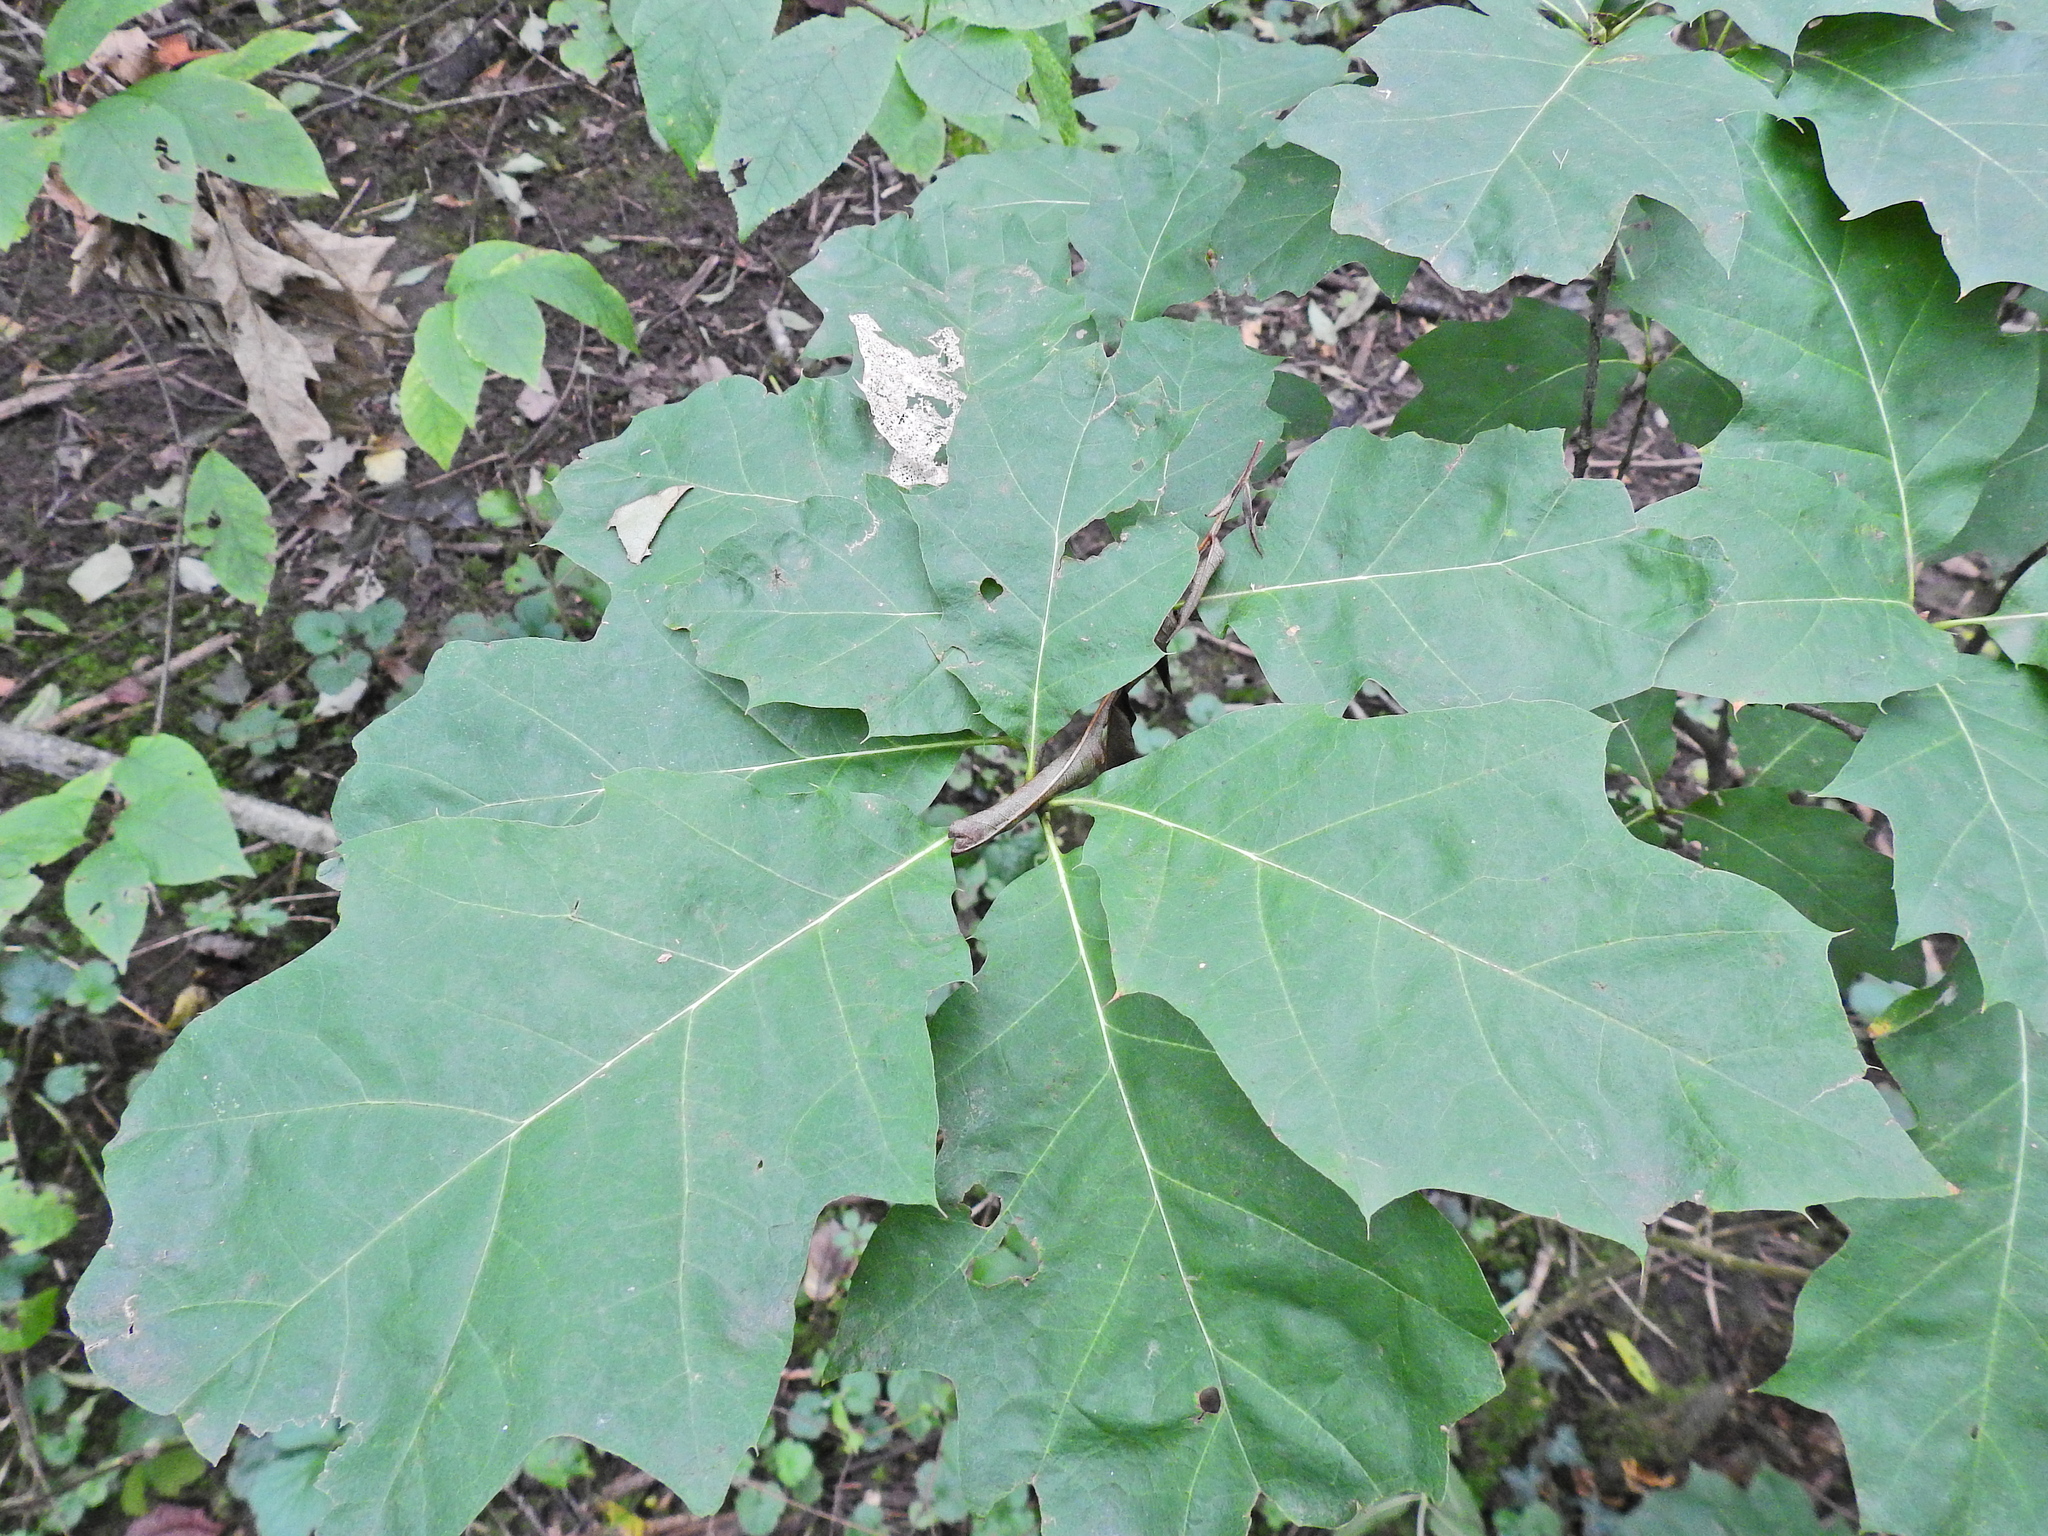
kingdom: Plantae
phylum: Tracheophyta
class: Magnoliopsida
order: Fagales
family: Fagaceae
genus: Quercus
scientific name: Quercus rubra
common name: Red oak
